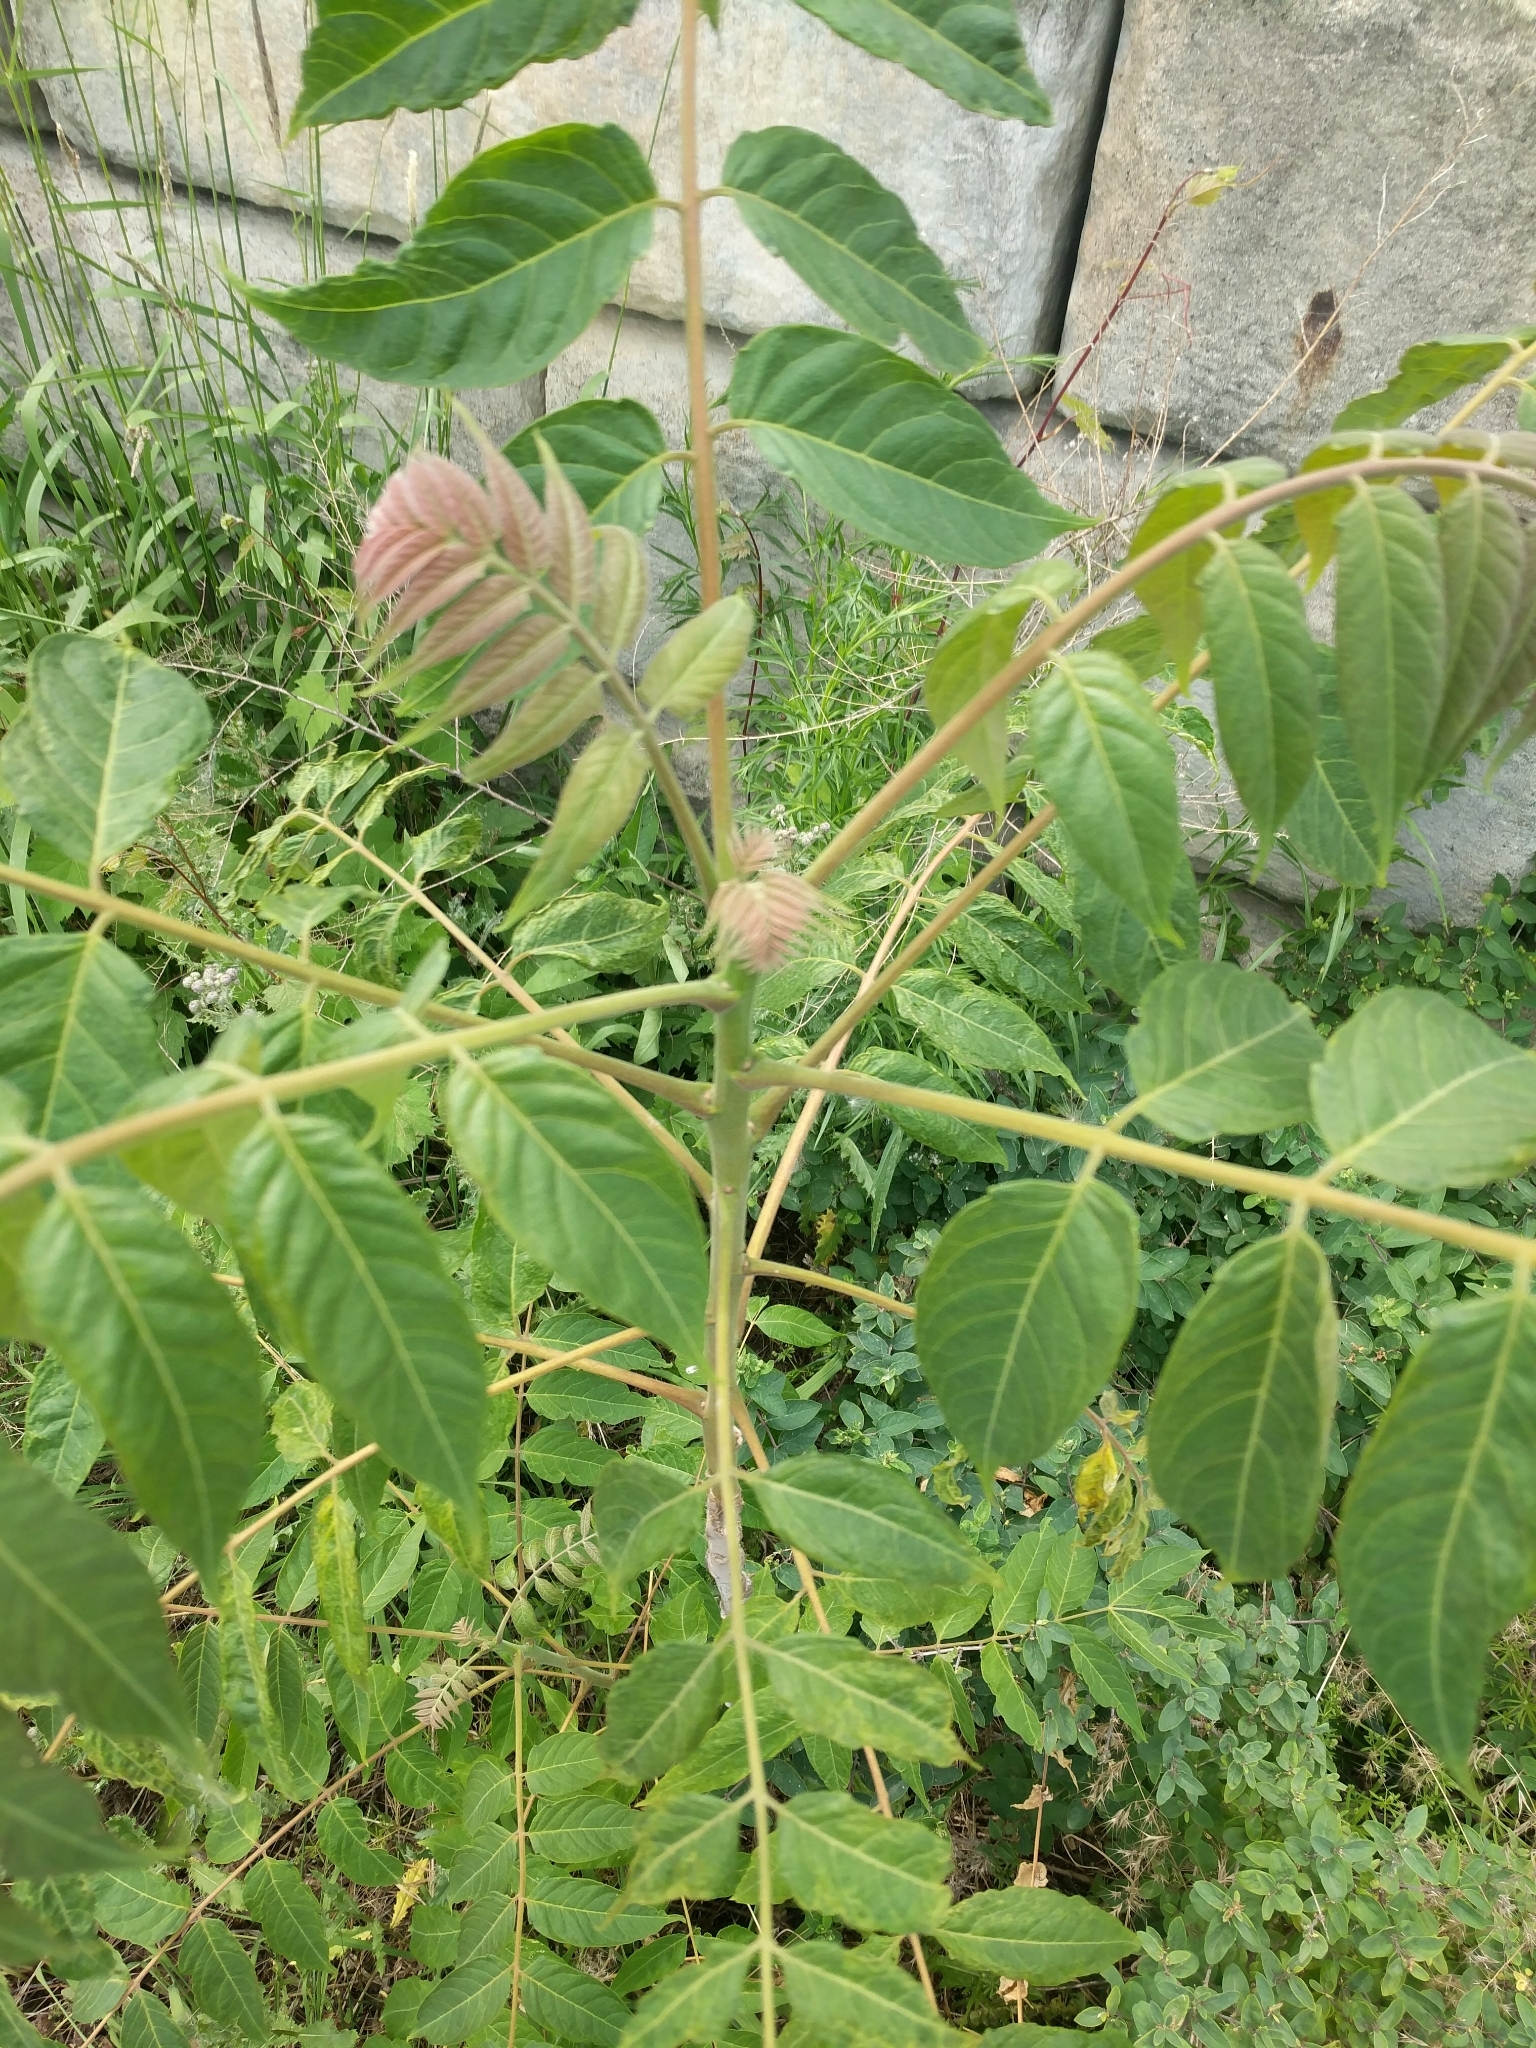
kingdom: Plantae
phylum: Tracheophyta
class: Magnoliopsida
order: Sapindales
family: Simaroubaceae
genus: Ailanthus
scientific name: Ailanthus altissima
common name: Tree-of-heaven
